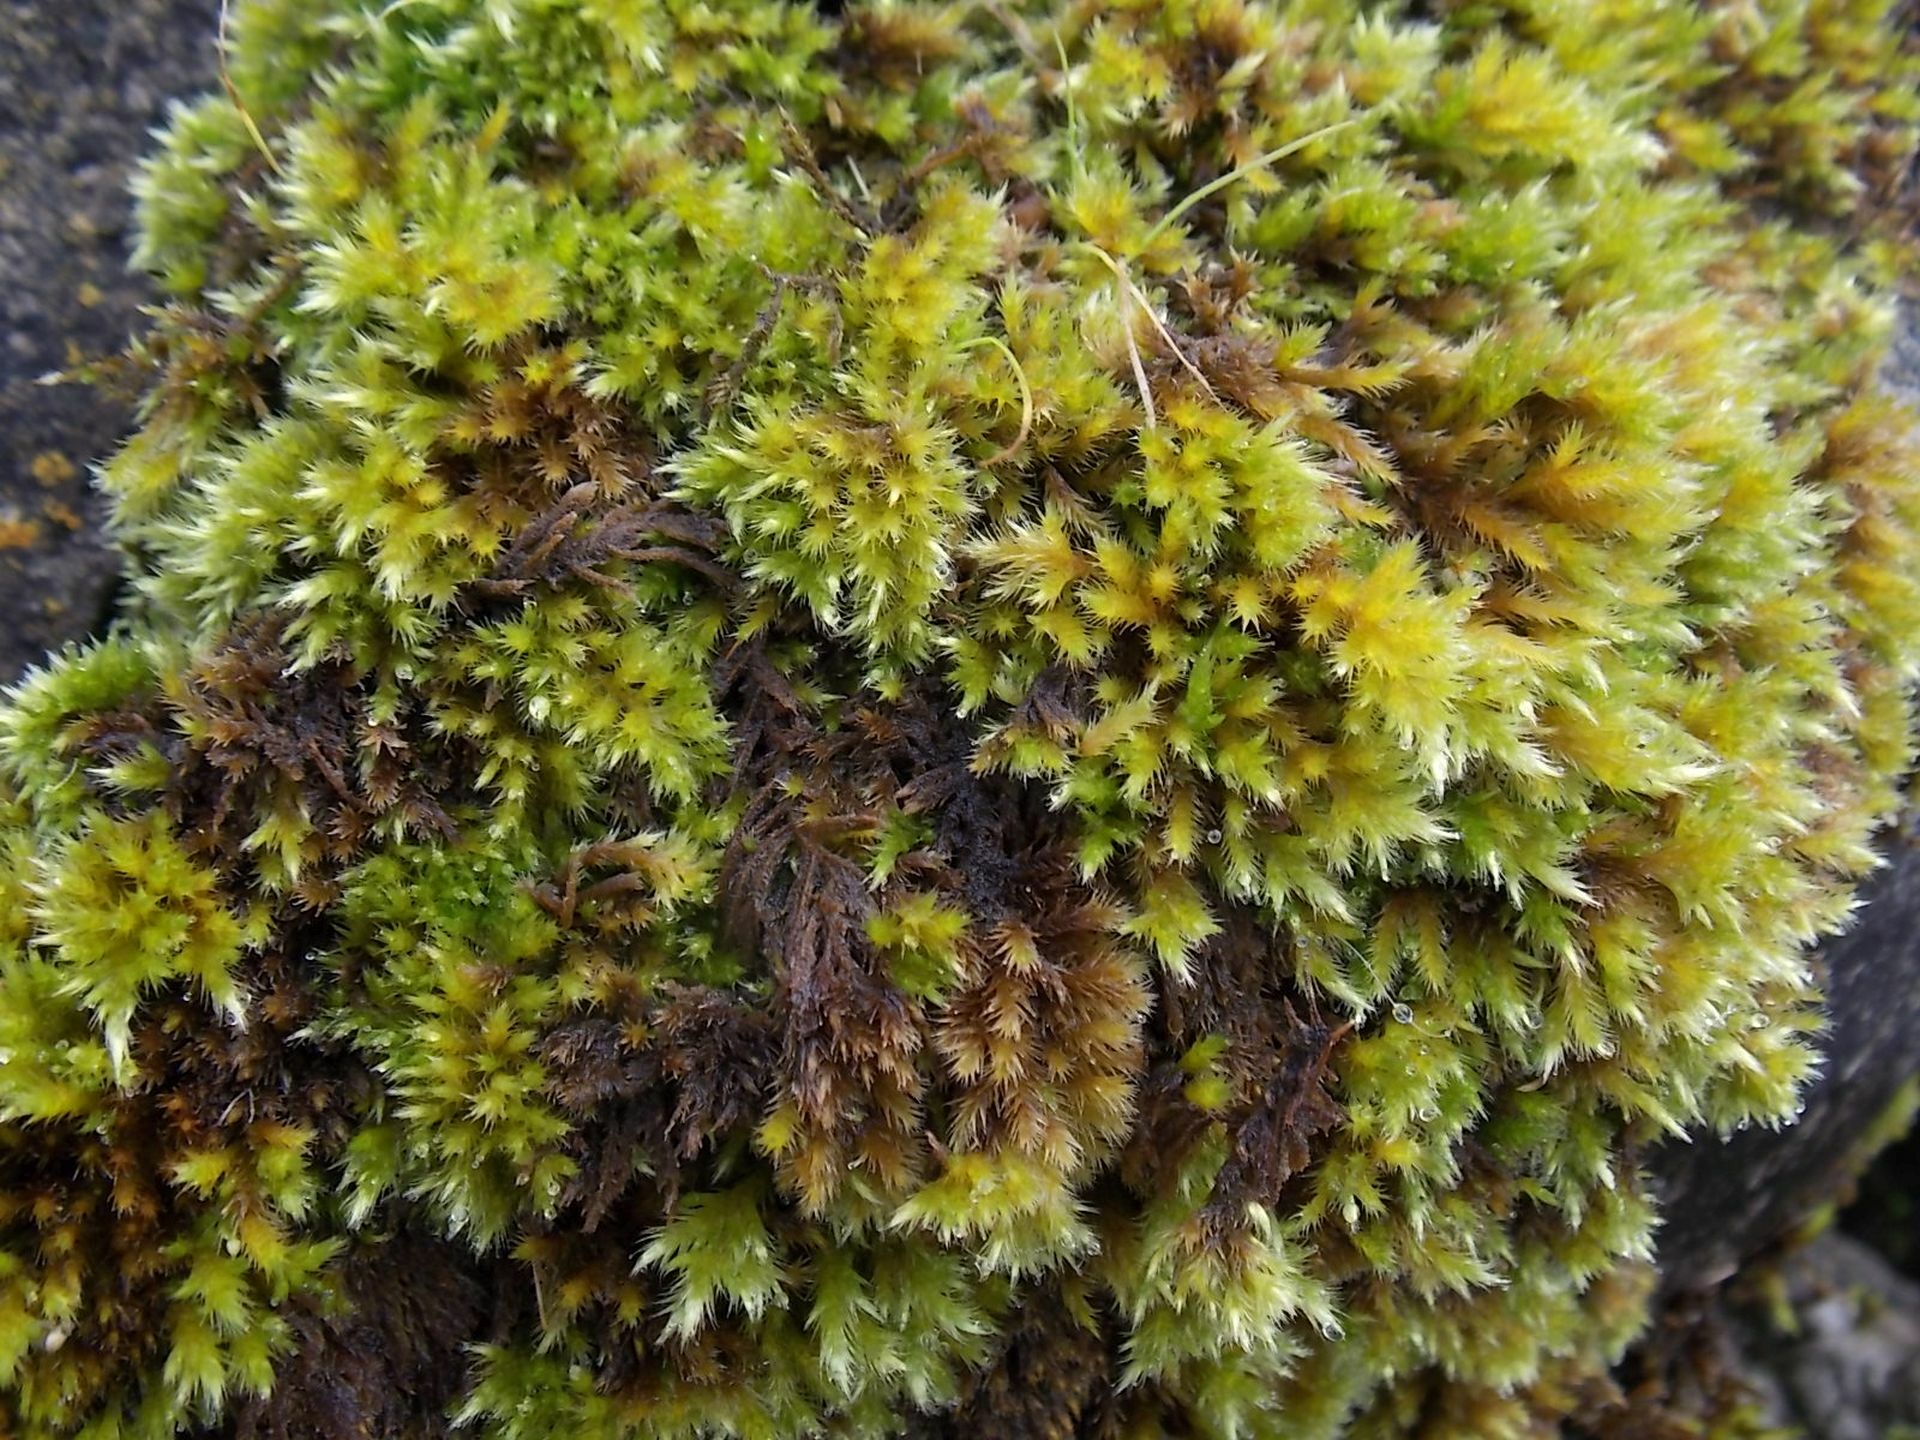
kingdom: Plantae
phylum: Bryophyta
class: Bryopsida
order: Hypnales
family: Brachytheciaceae
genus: Homalothecium
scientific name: Homalothecium sericeum
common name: Silky wall feather-moss
